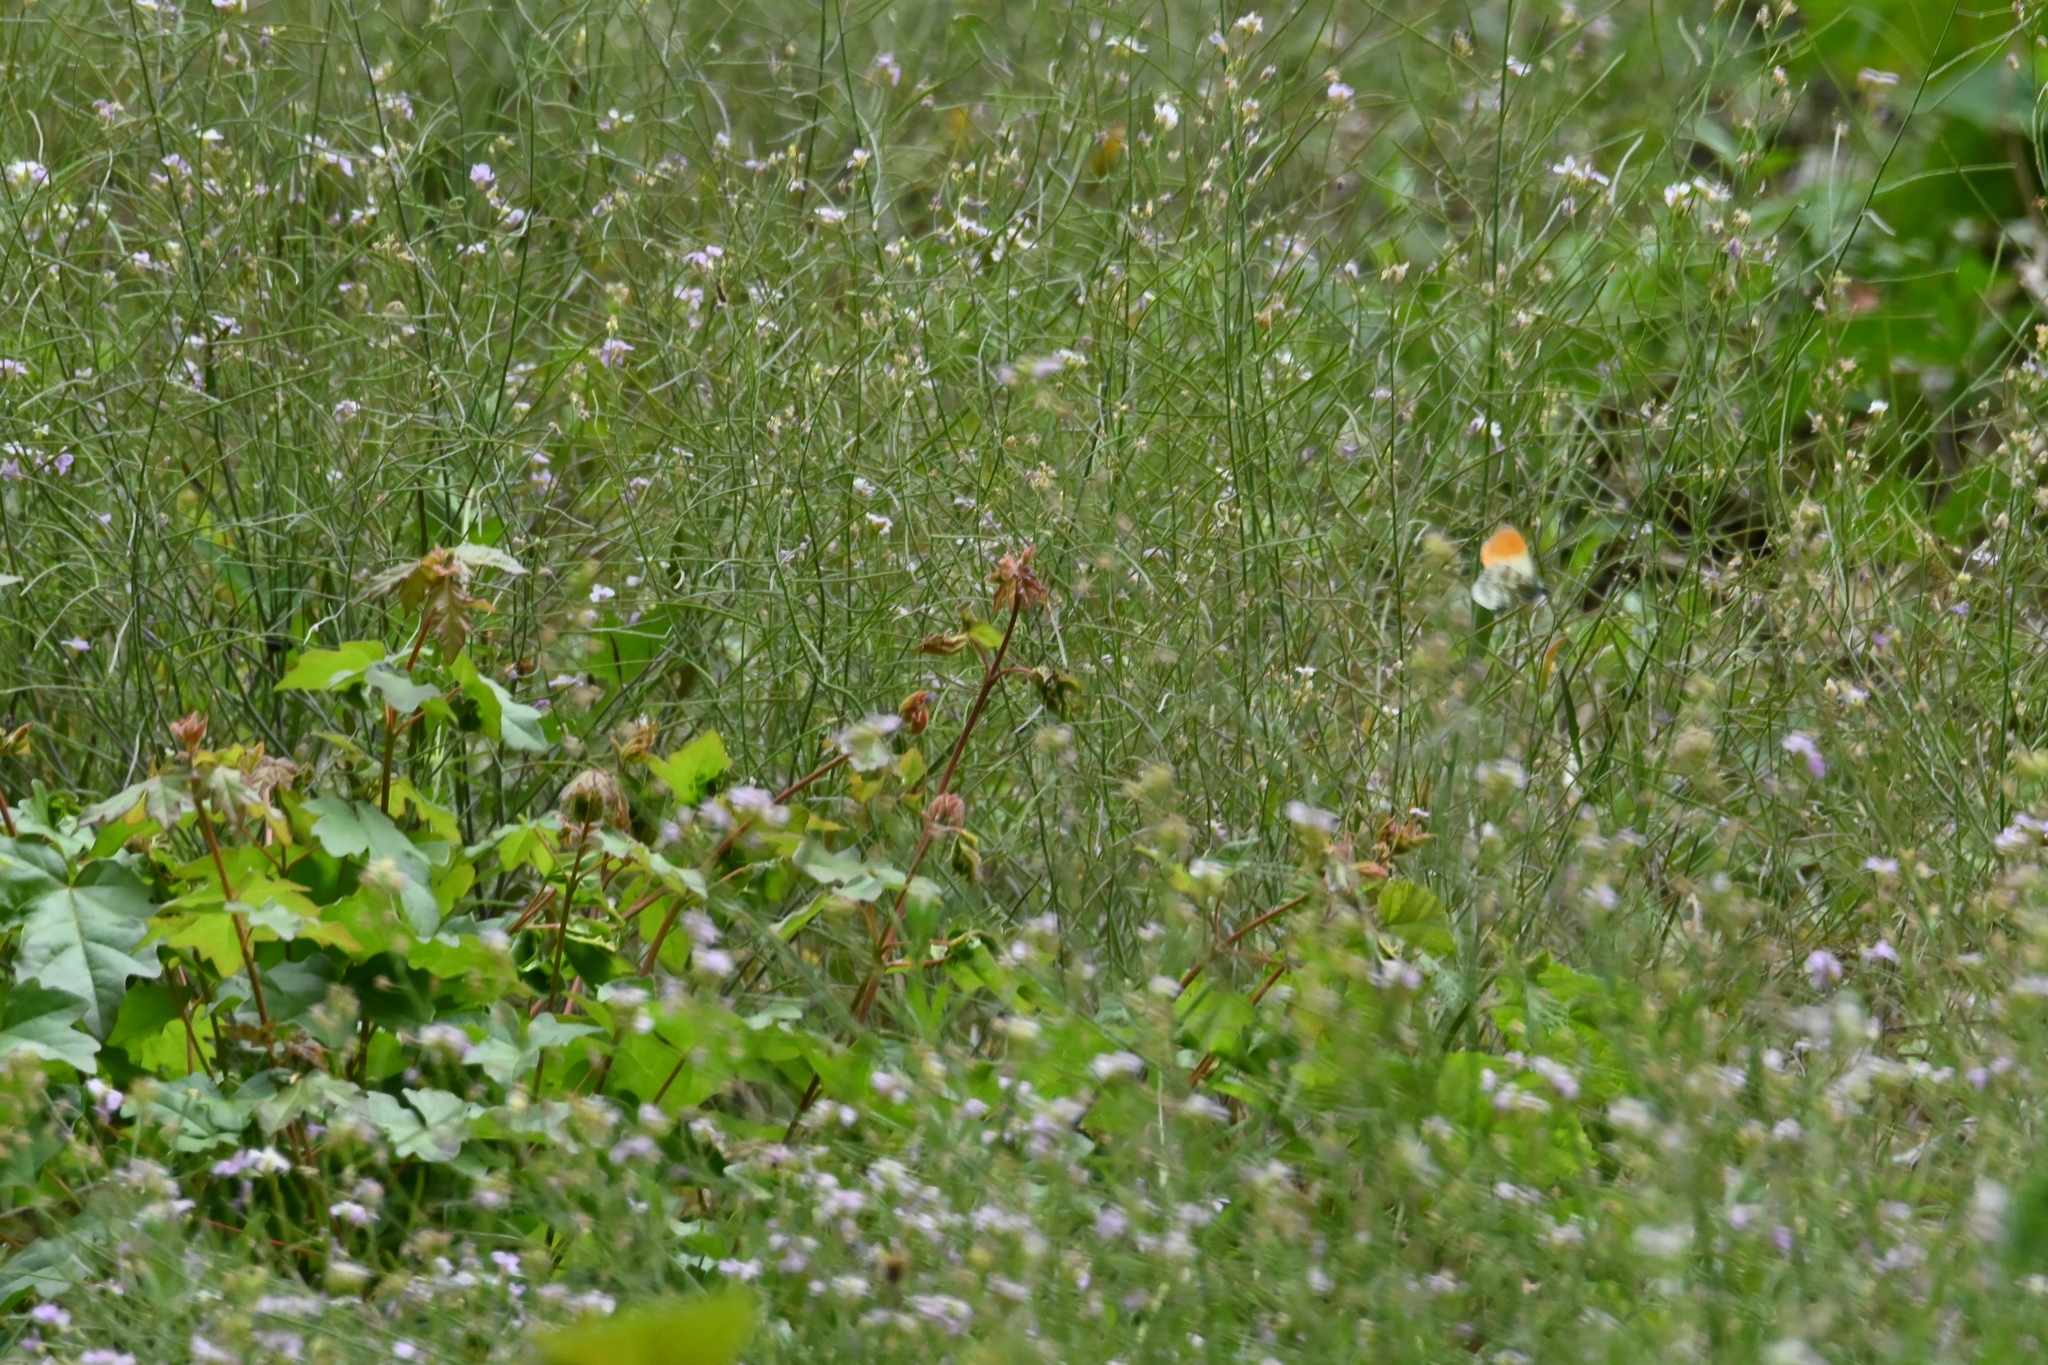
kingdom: Animalia
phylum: Arthropoda
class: Insecta
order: Lepidoptera
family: Pieridae
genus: Anthocharis
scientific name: Anthocharis cardamines
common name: Orange-tip
